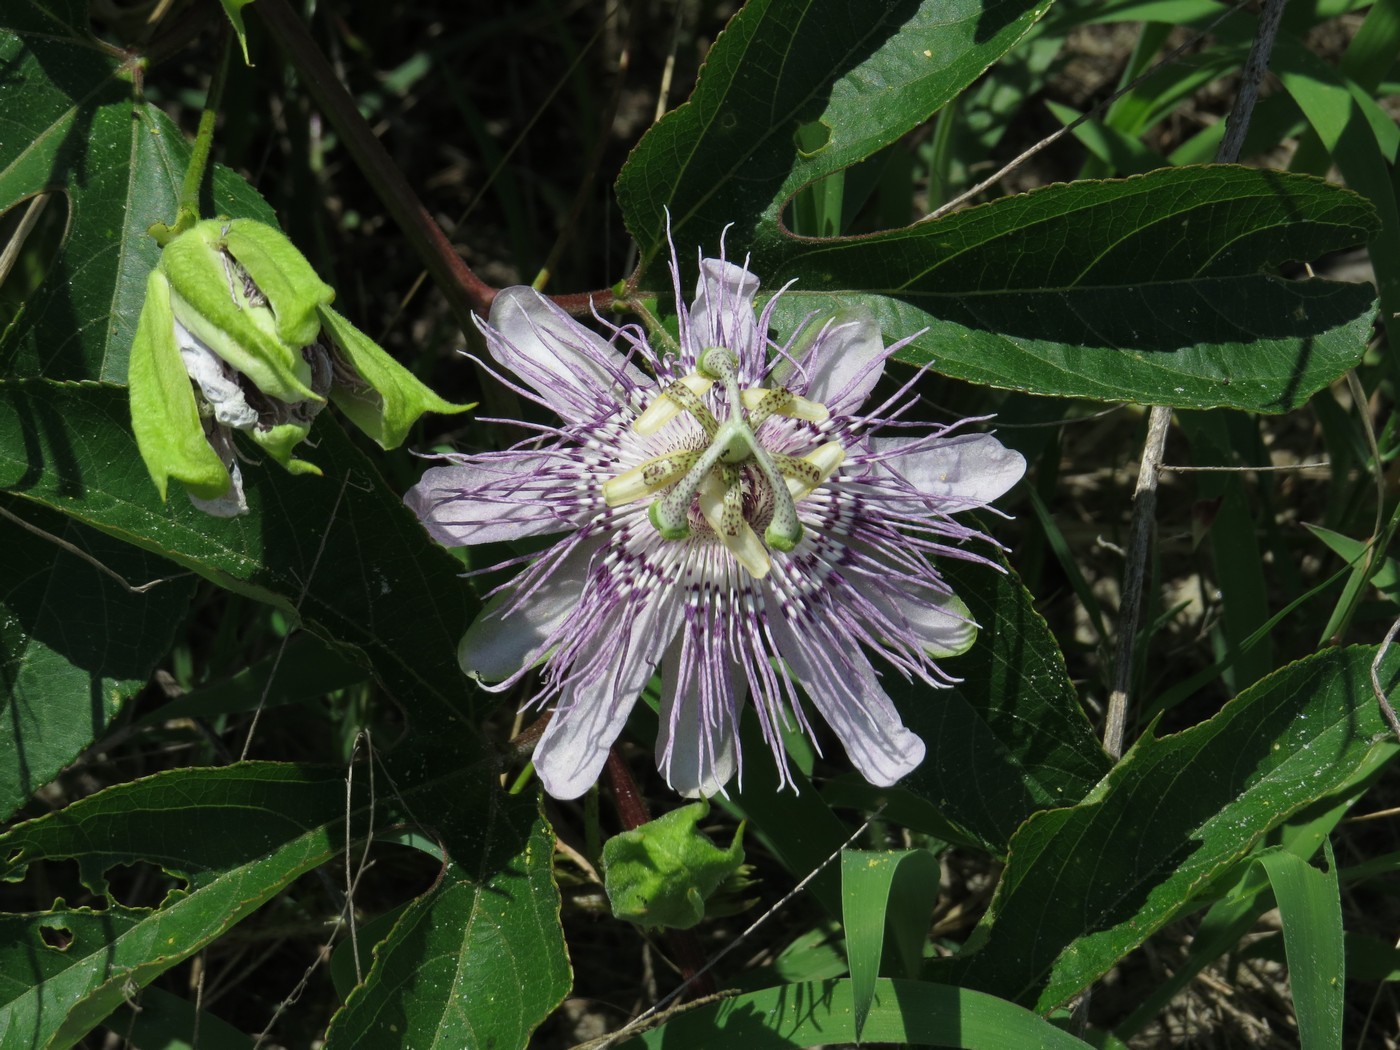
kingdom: Plantae
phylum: Tracheophyta
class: Magnoliopsida
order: Malpighiales
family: Passifloraceae
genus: Passiflora
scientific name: Passiflora incarnata
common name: Apricot-vine
